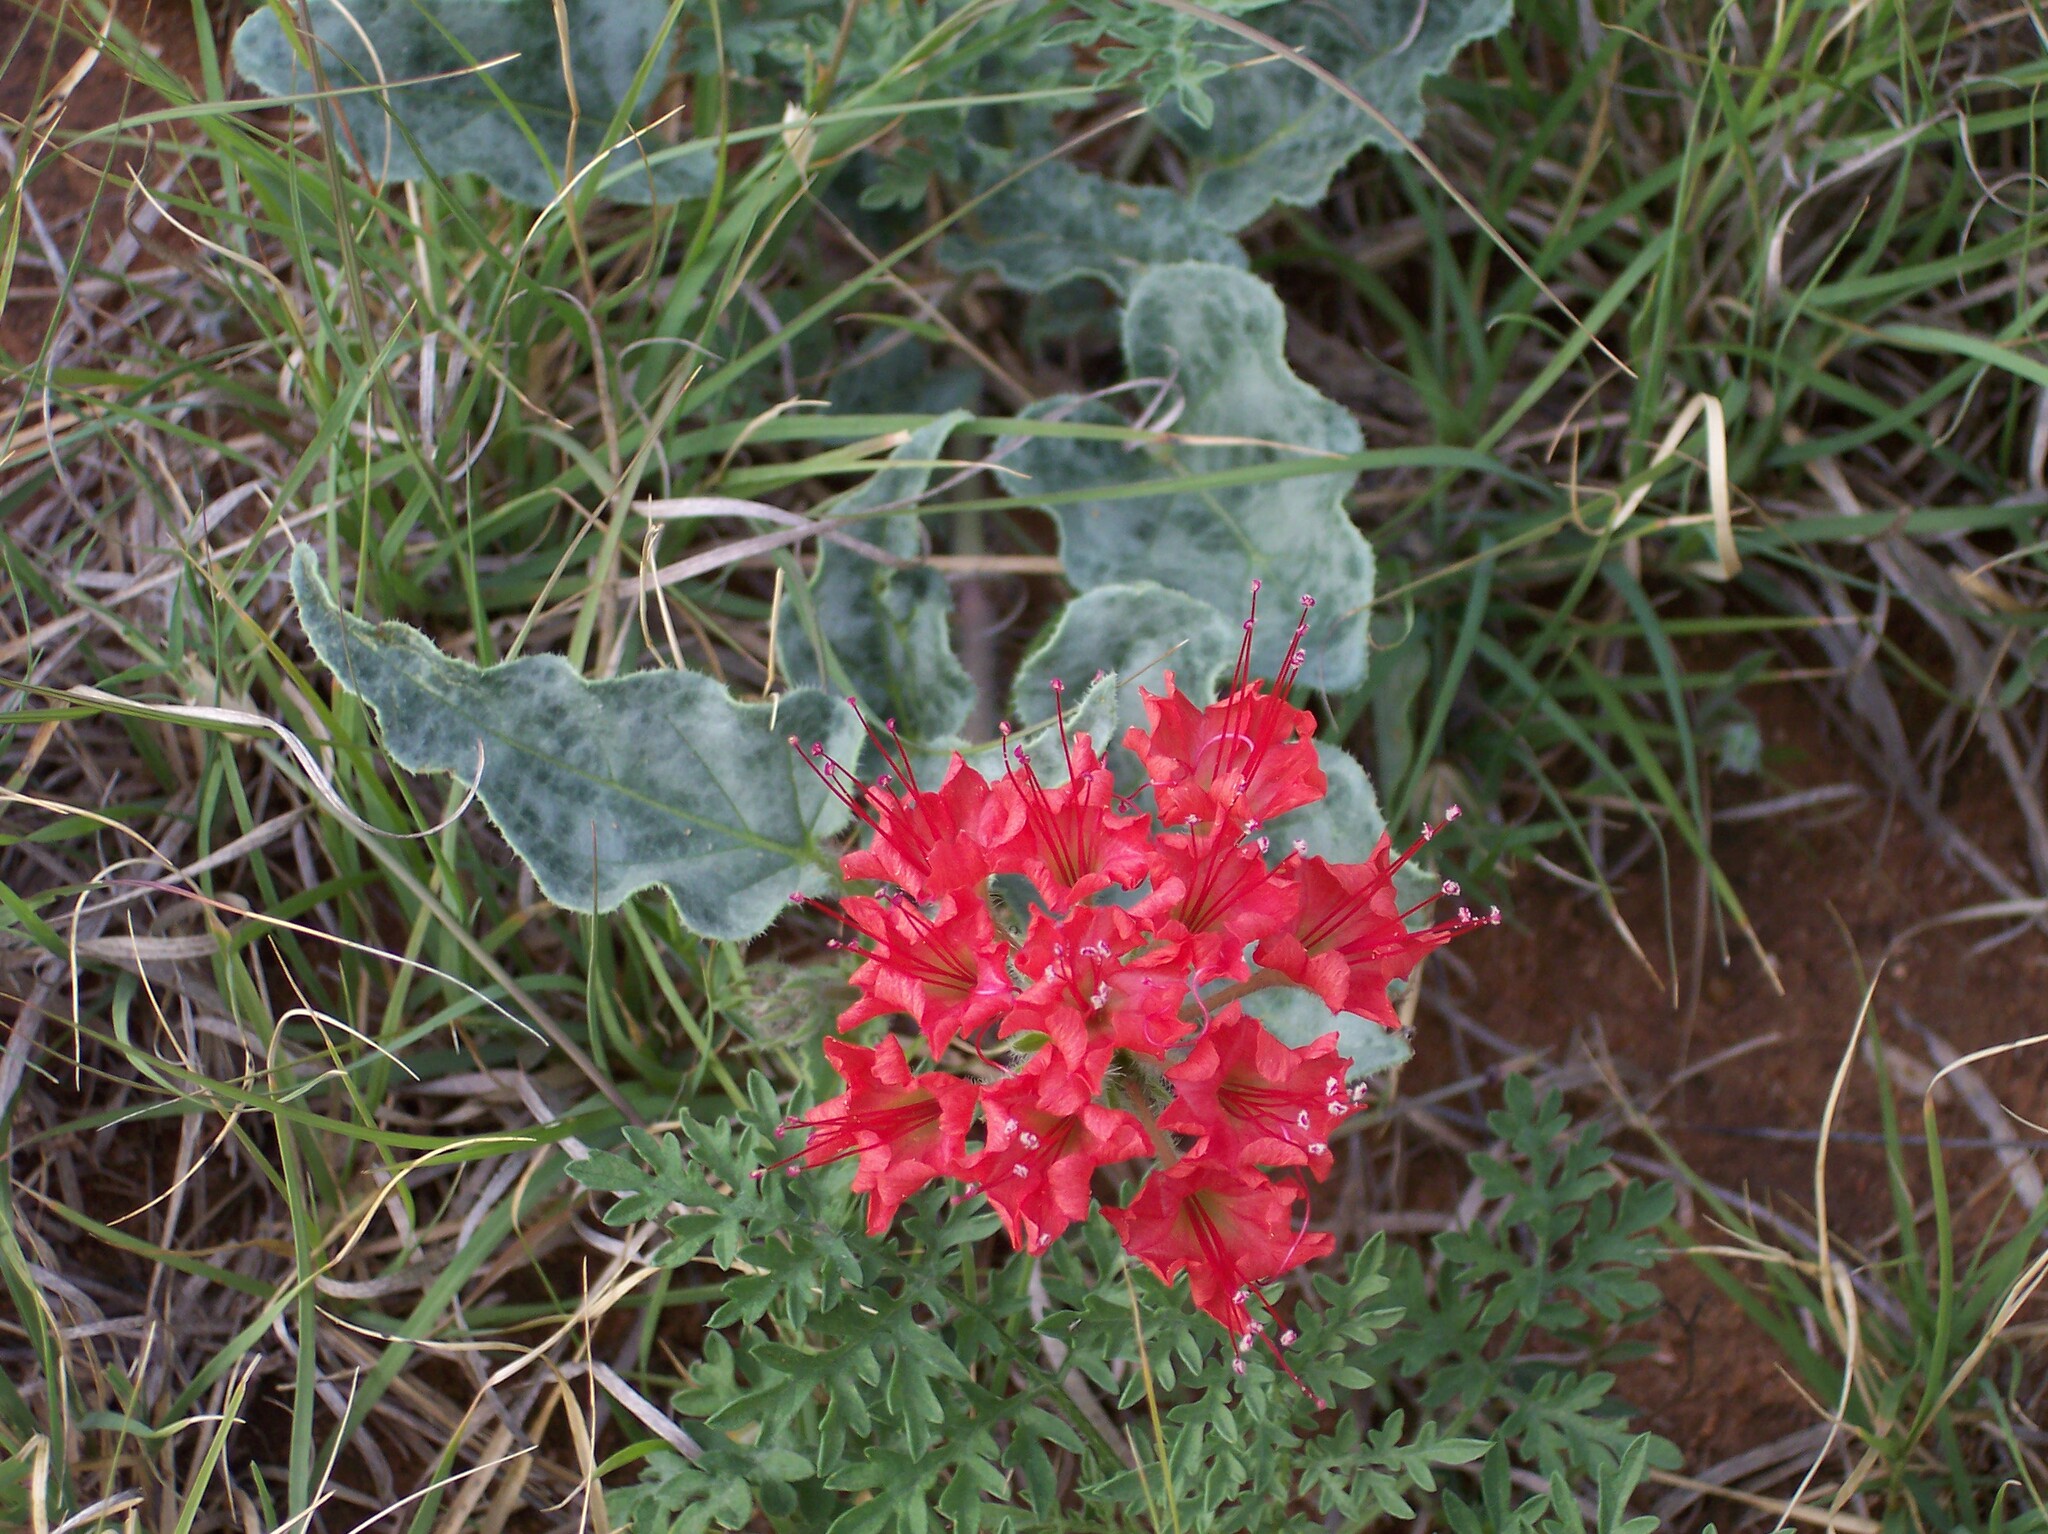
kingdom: Plantae
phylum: Tracheophyta
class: Magnoliopsida
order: Caryophyllales
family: Nyctaginaceae
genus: Nyctaginia
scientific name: Nyctaginia capitata
